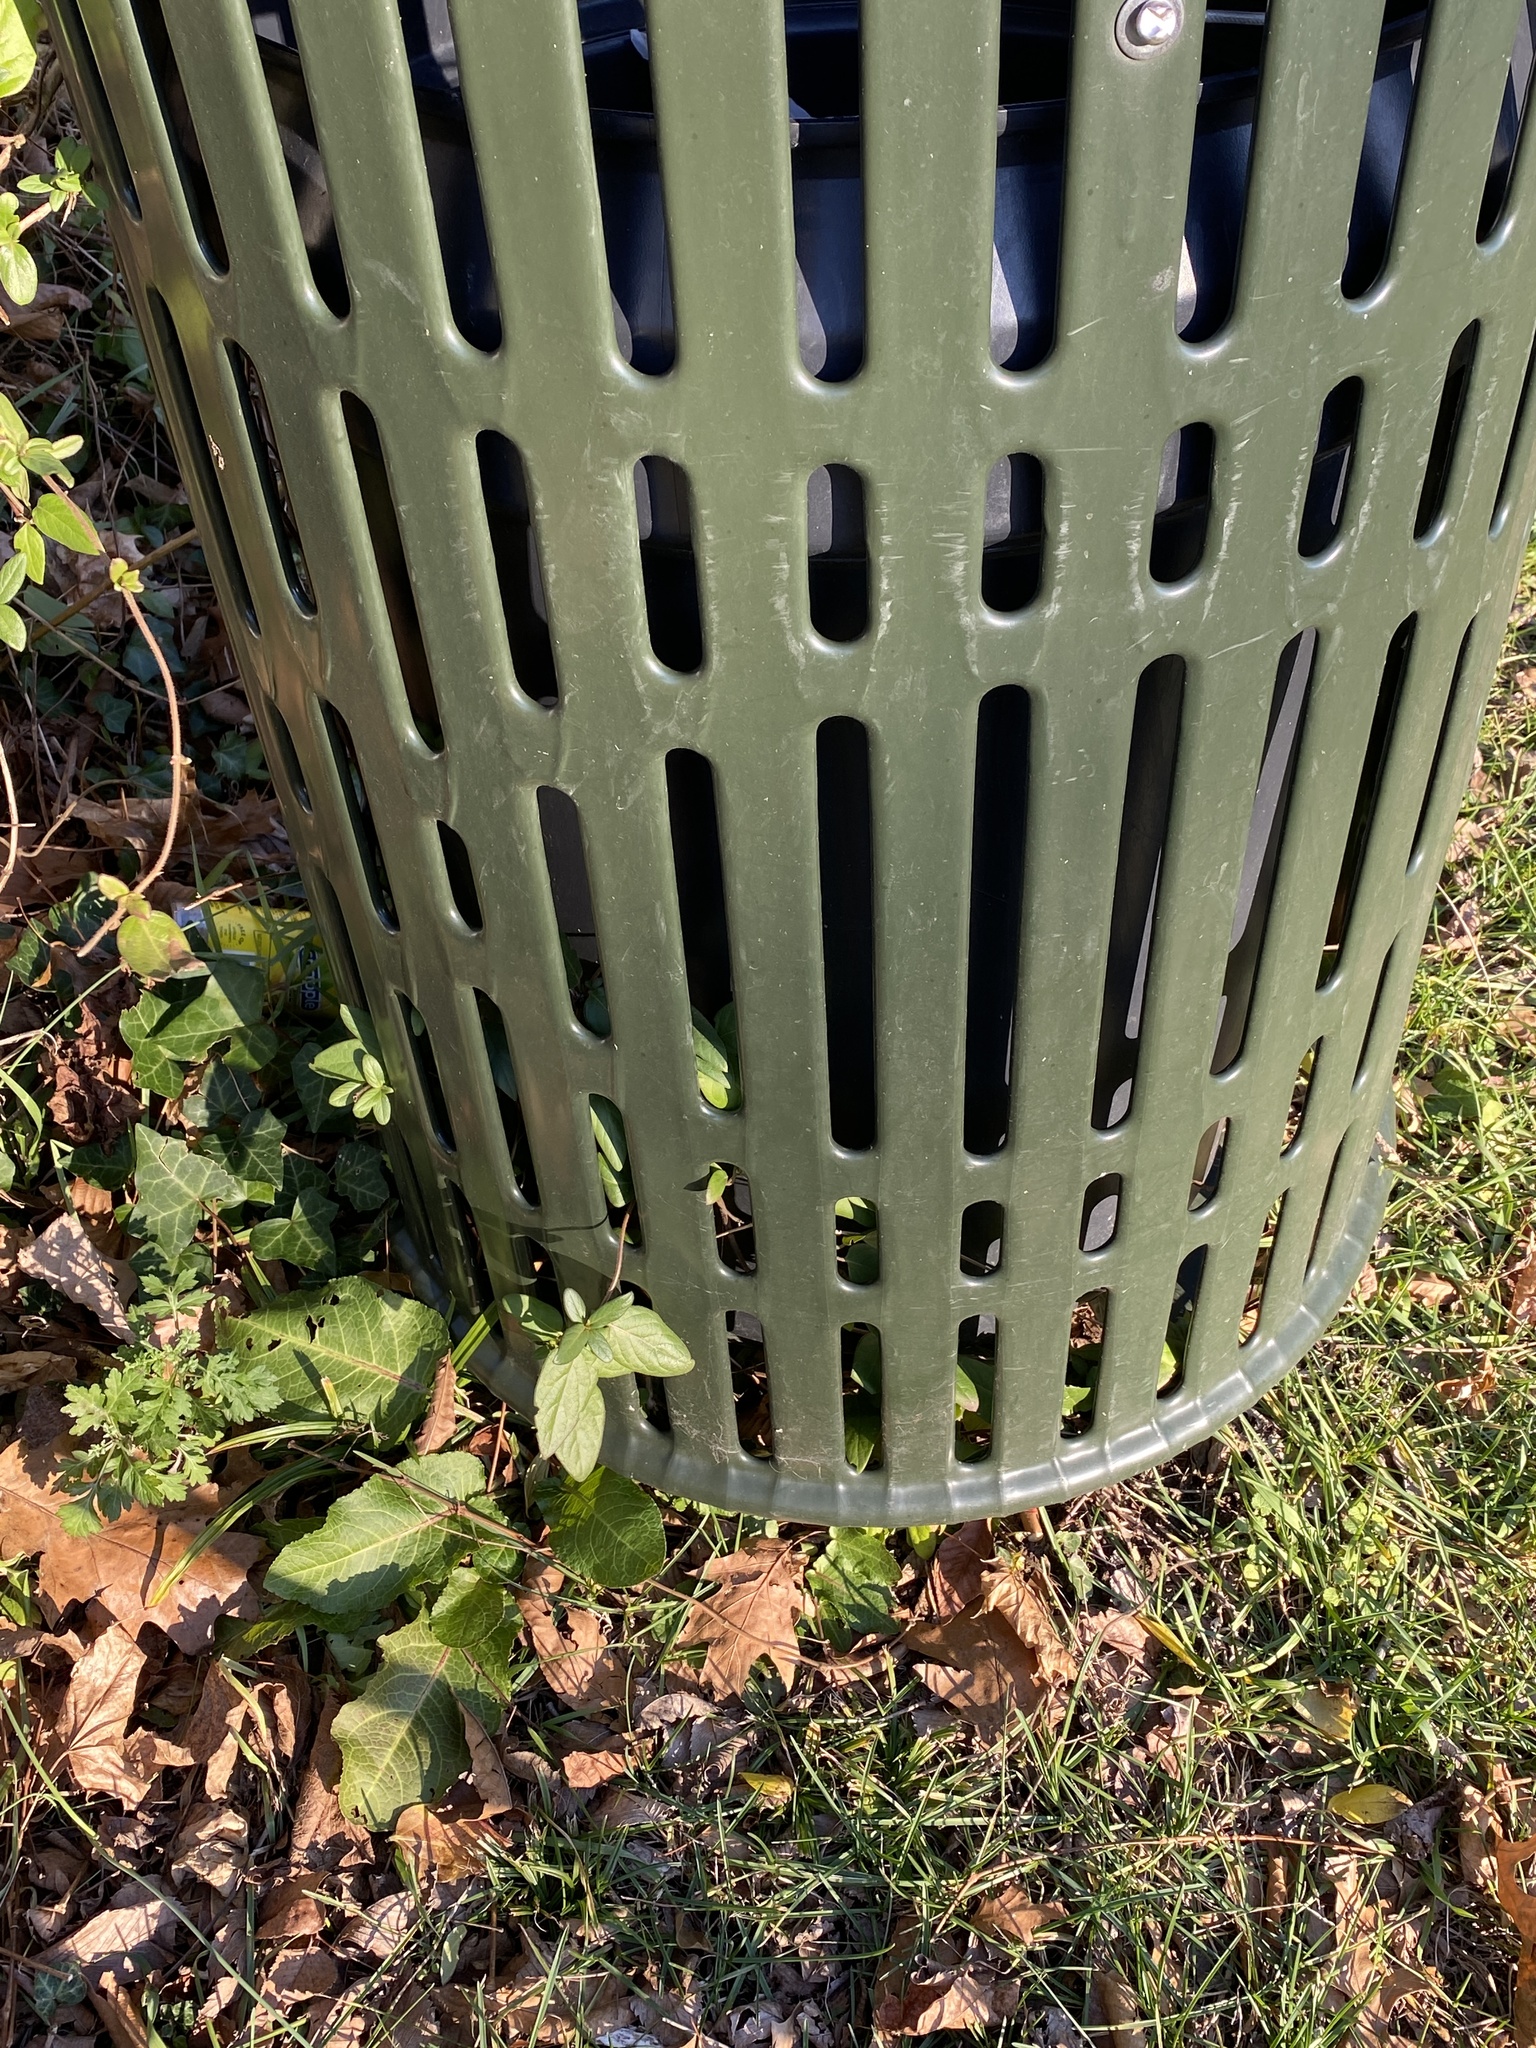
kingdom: Plantae
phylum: Tracheophyta
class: Magnoliopsida
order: Dipsacales
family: Caprifoliaceae
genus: Lonicera
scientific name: Lonicera japonica
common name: Japanese honeysuckle
